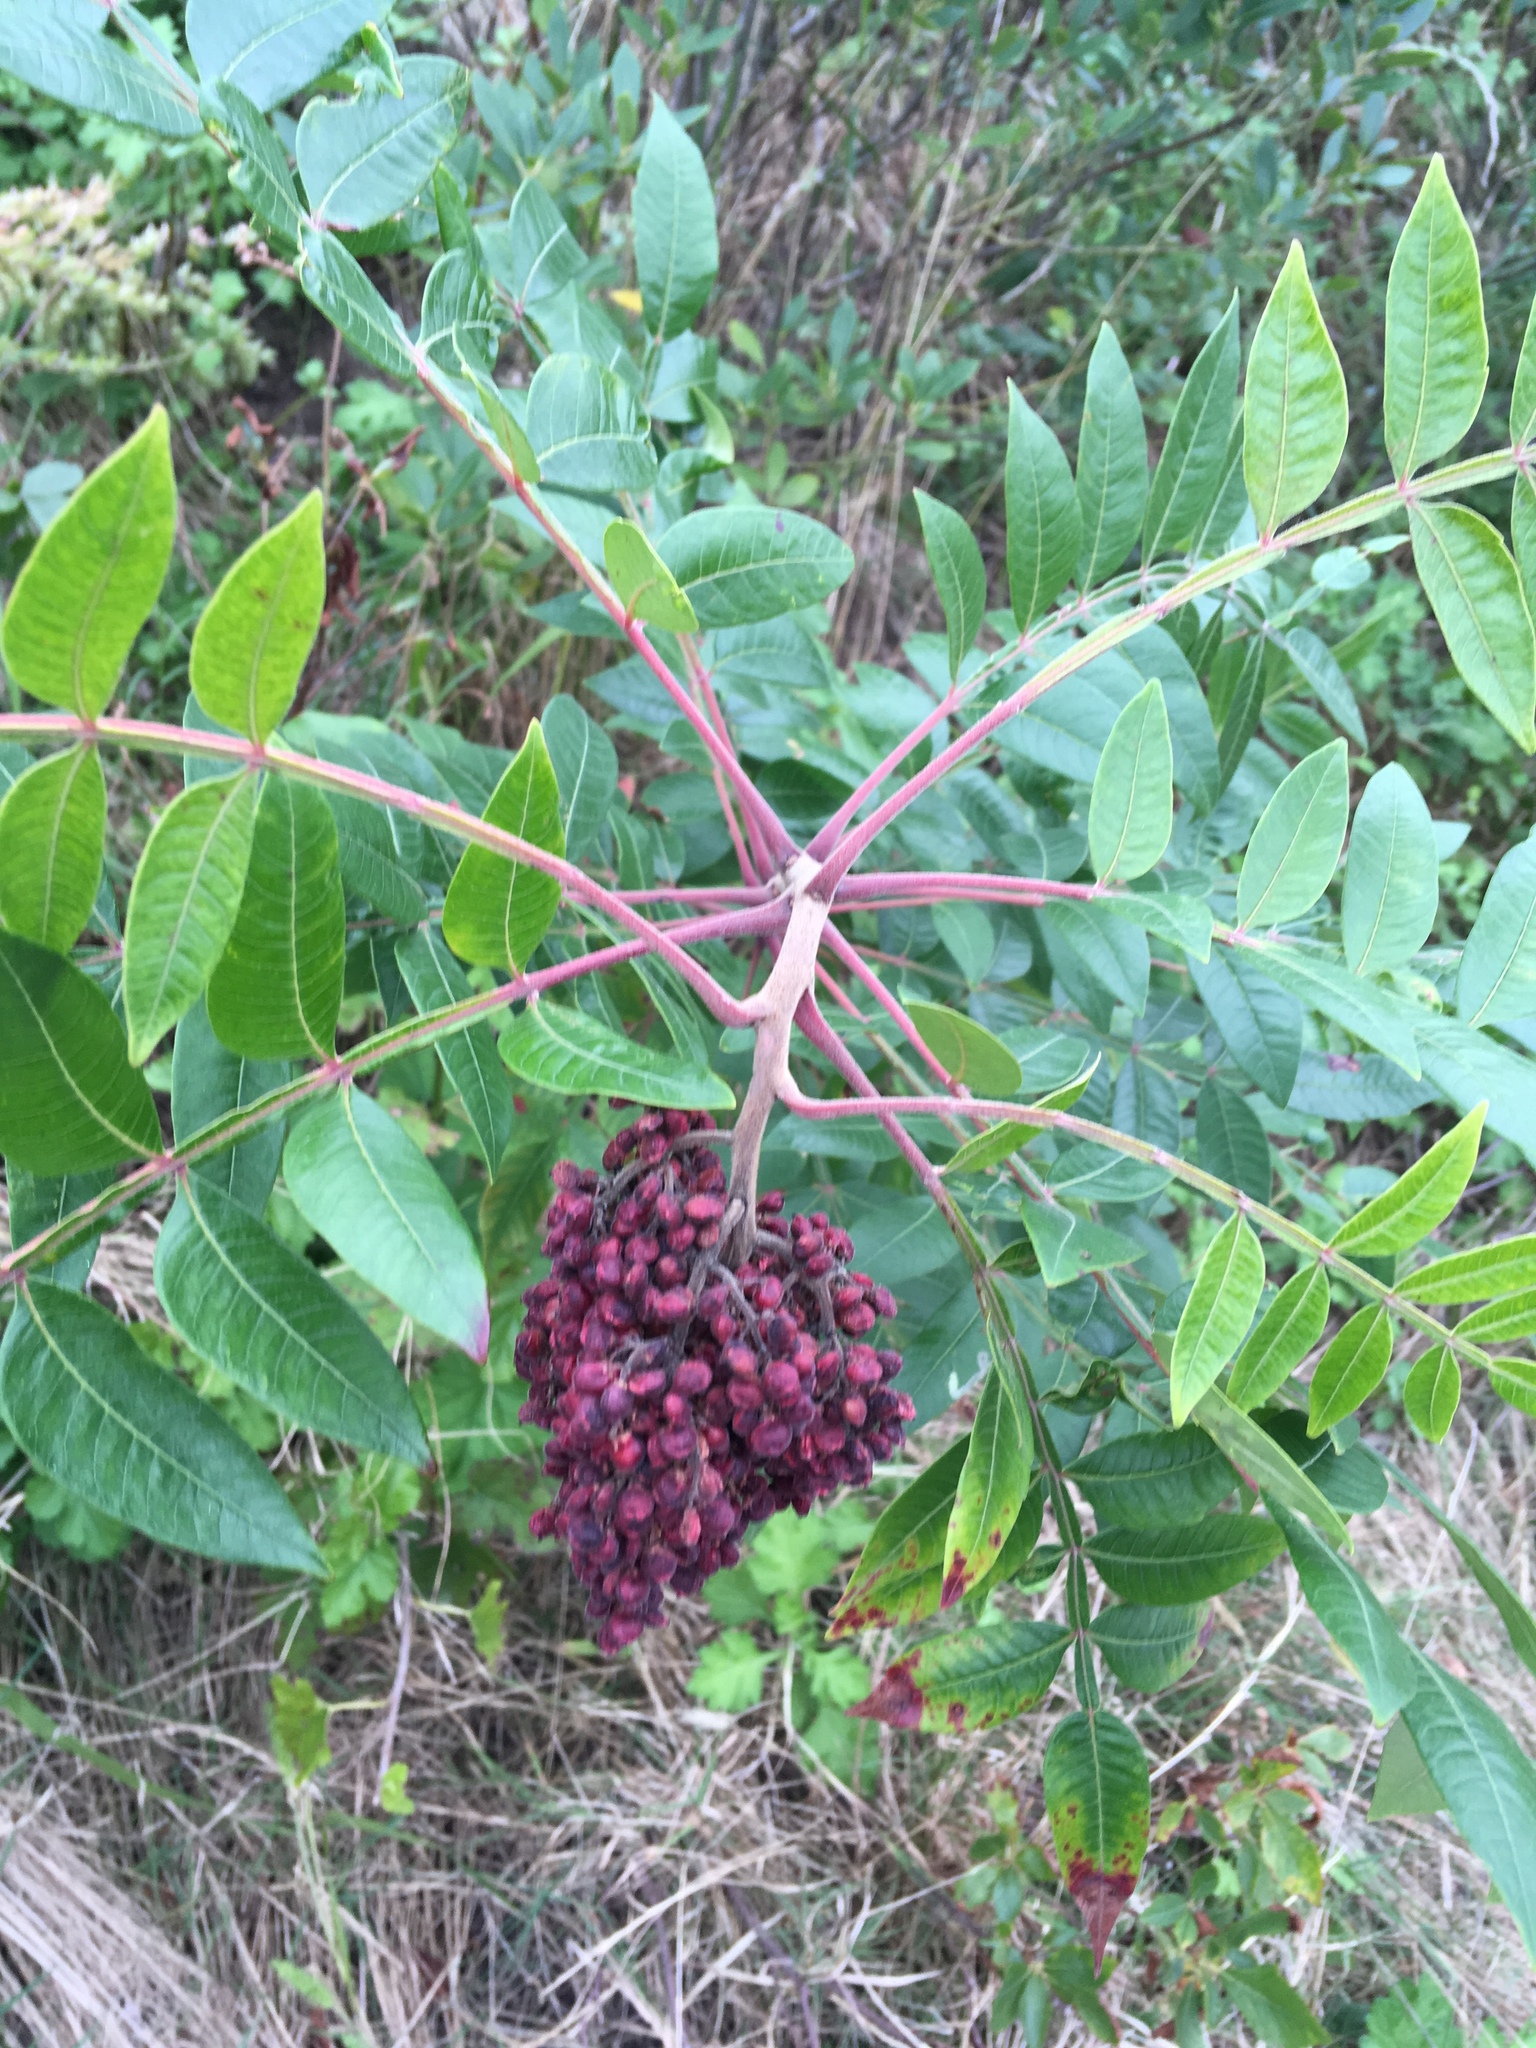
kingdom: Plantae
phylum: Tracheophyta
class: Magnoliopsida
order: Sapindales
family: Anacardiaceae
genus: Rhus
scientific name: Rhus copallina
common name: Shining sumac
